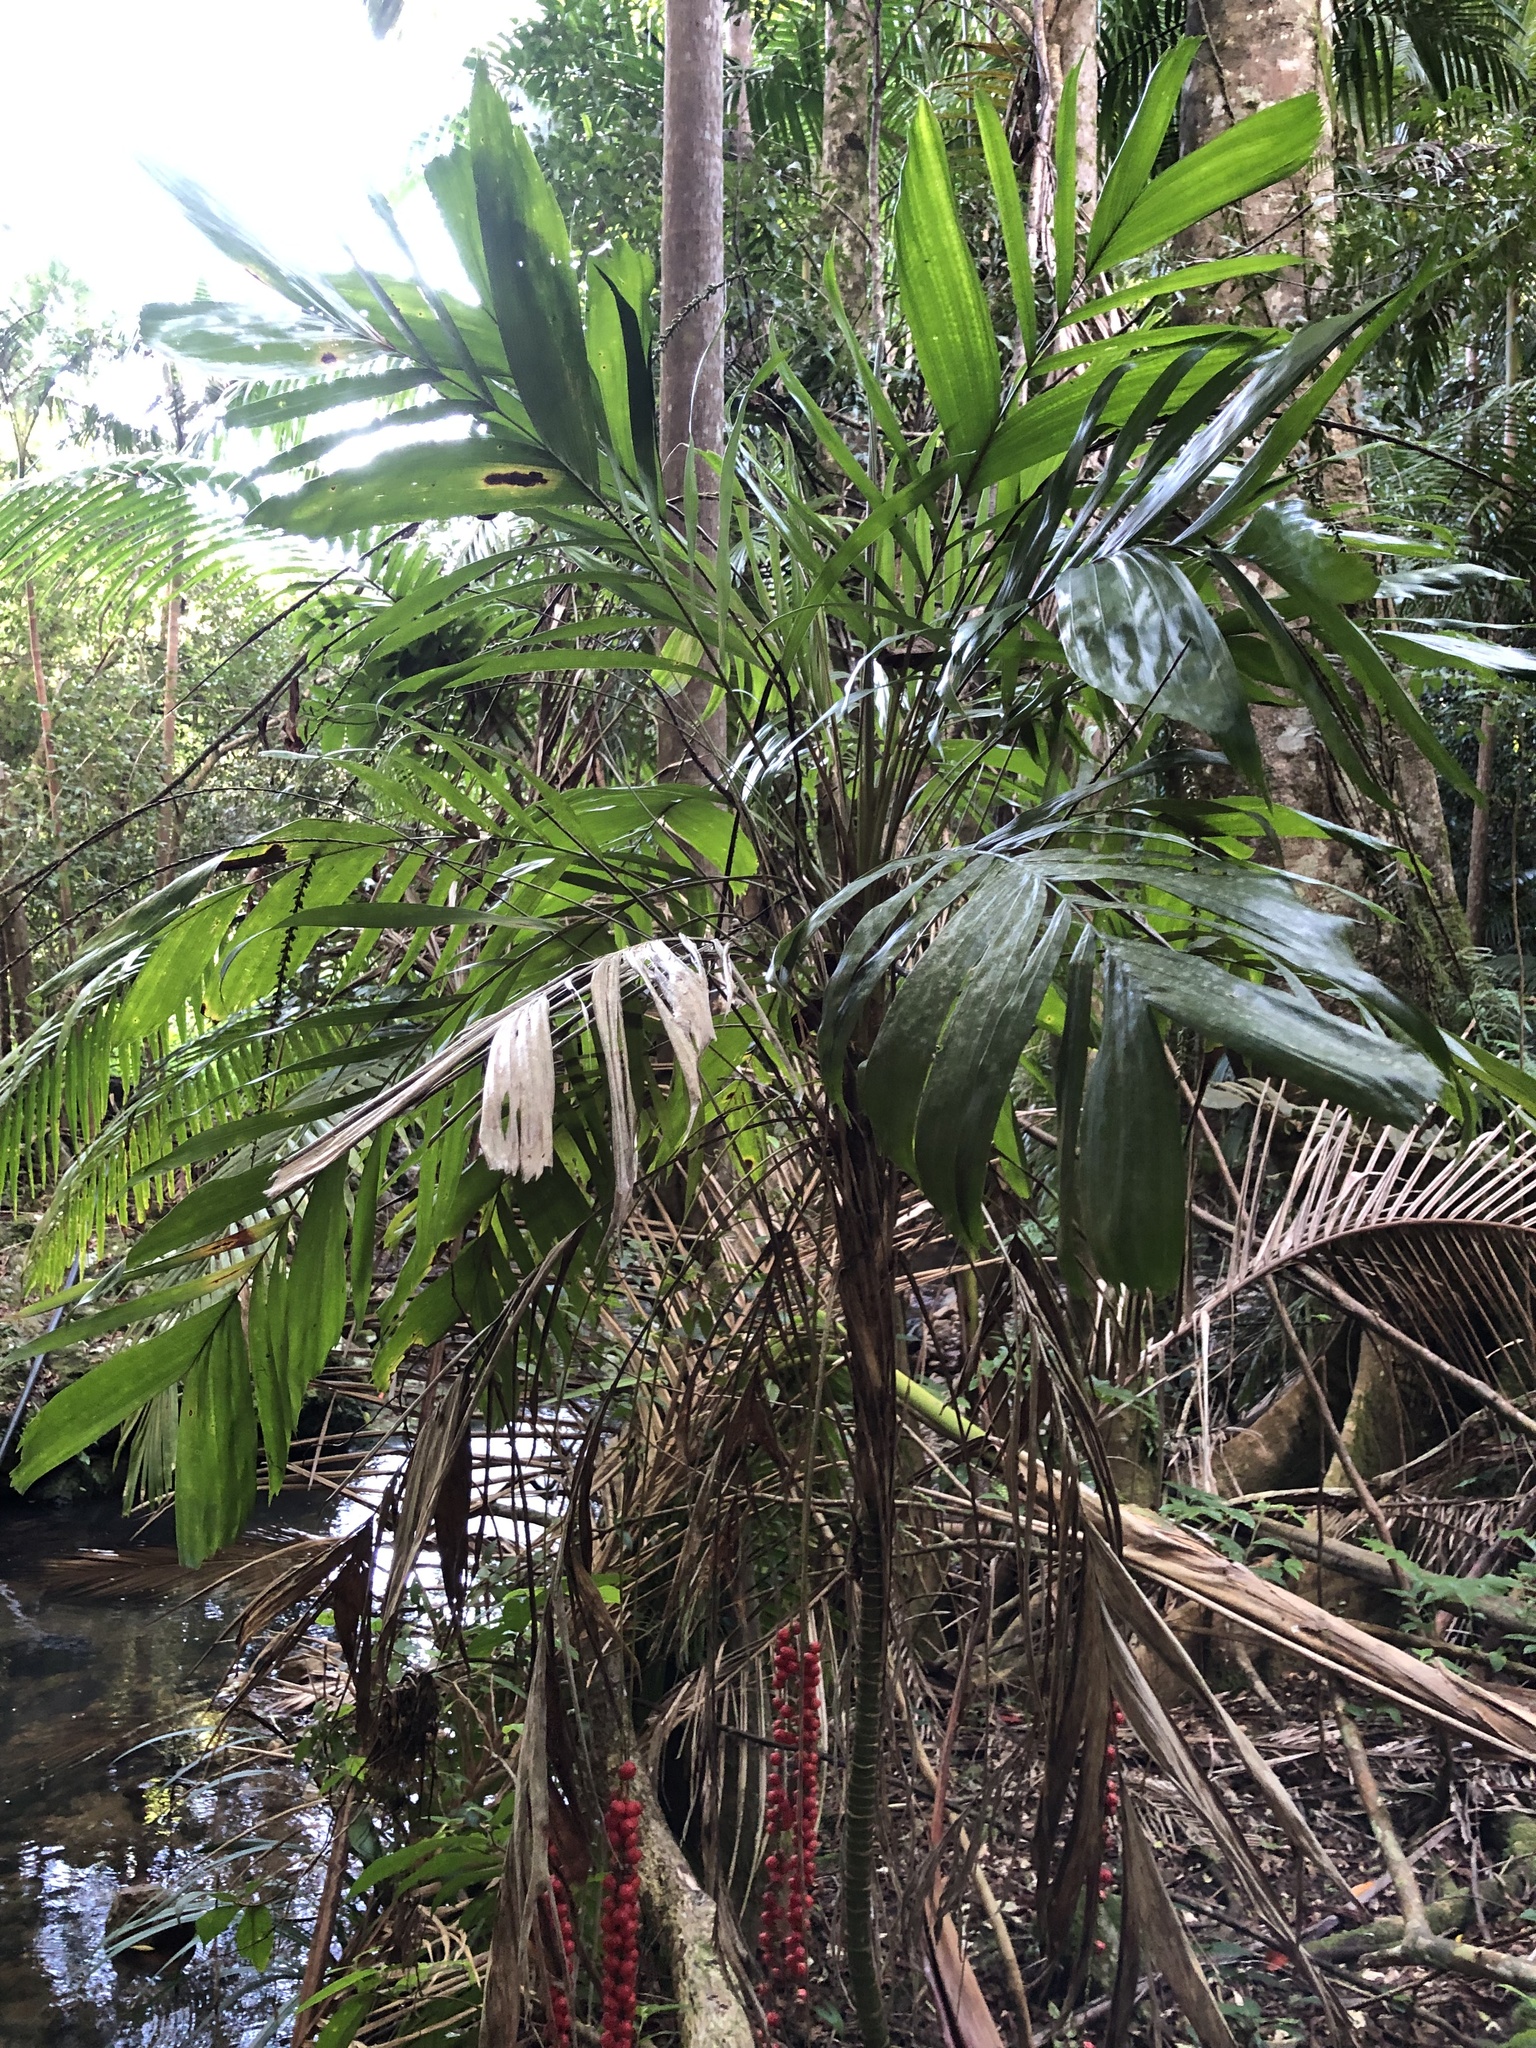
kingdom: Plantae
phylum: Tracheophyta
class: Liliopsida
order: Arecales
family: Arecaceae
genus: Linospadix
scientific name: Linospadix monostachyus
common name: Walking-stick palm
